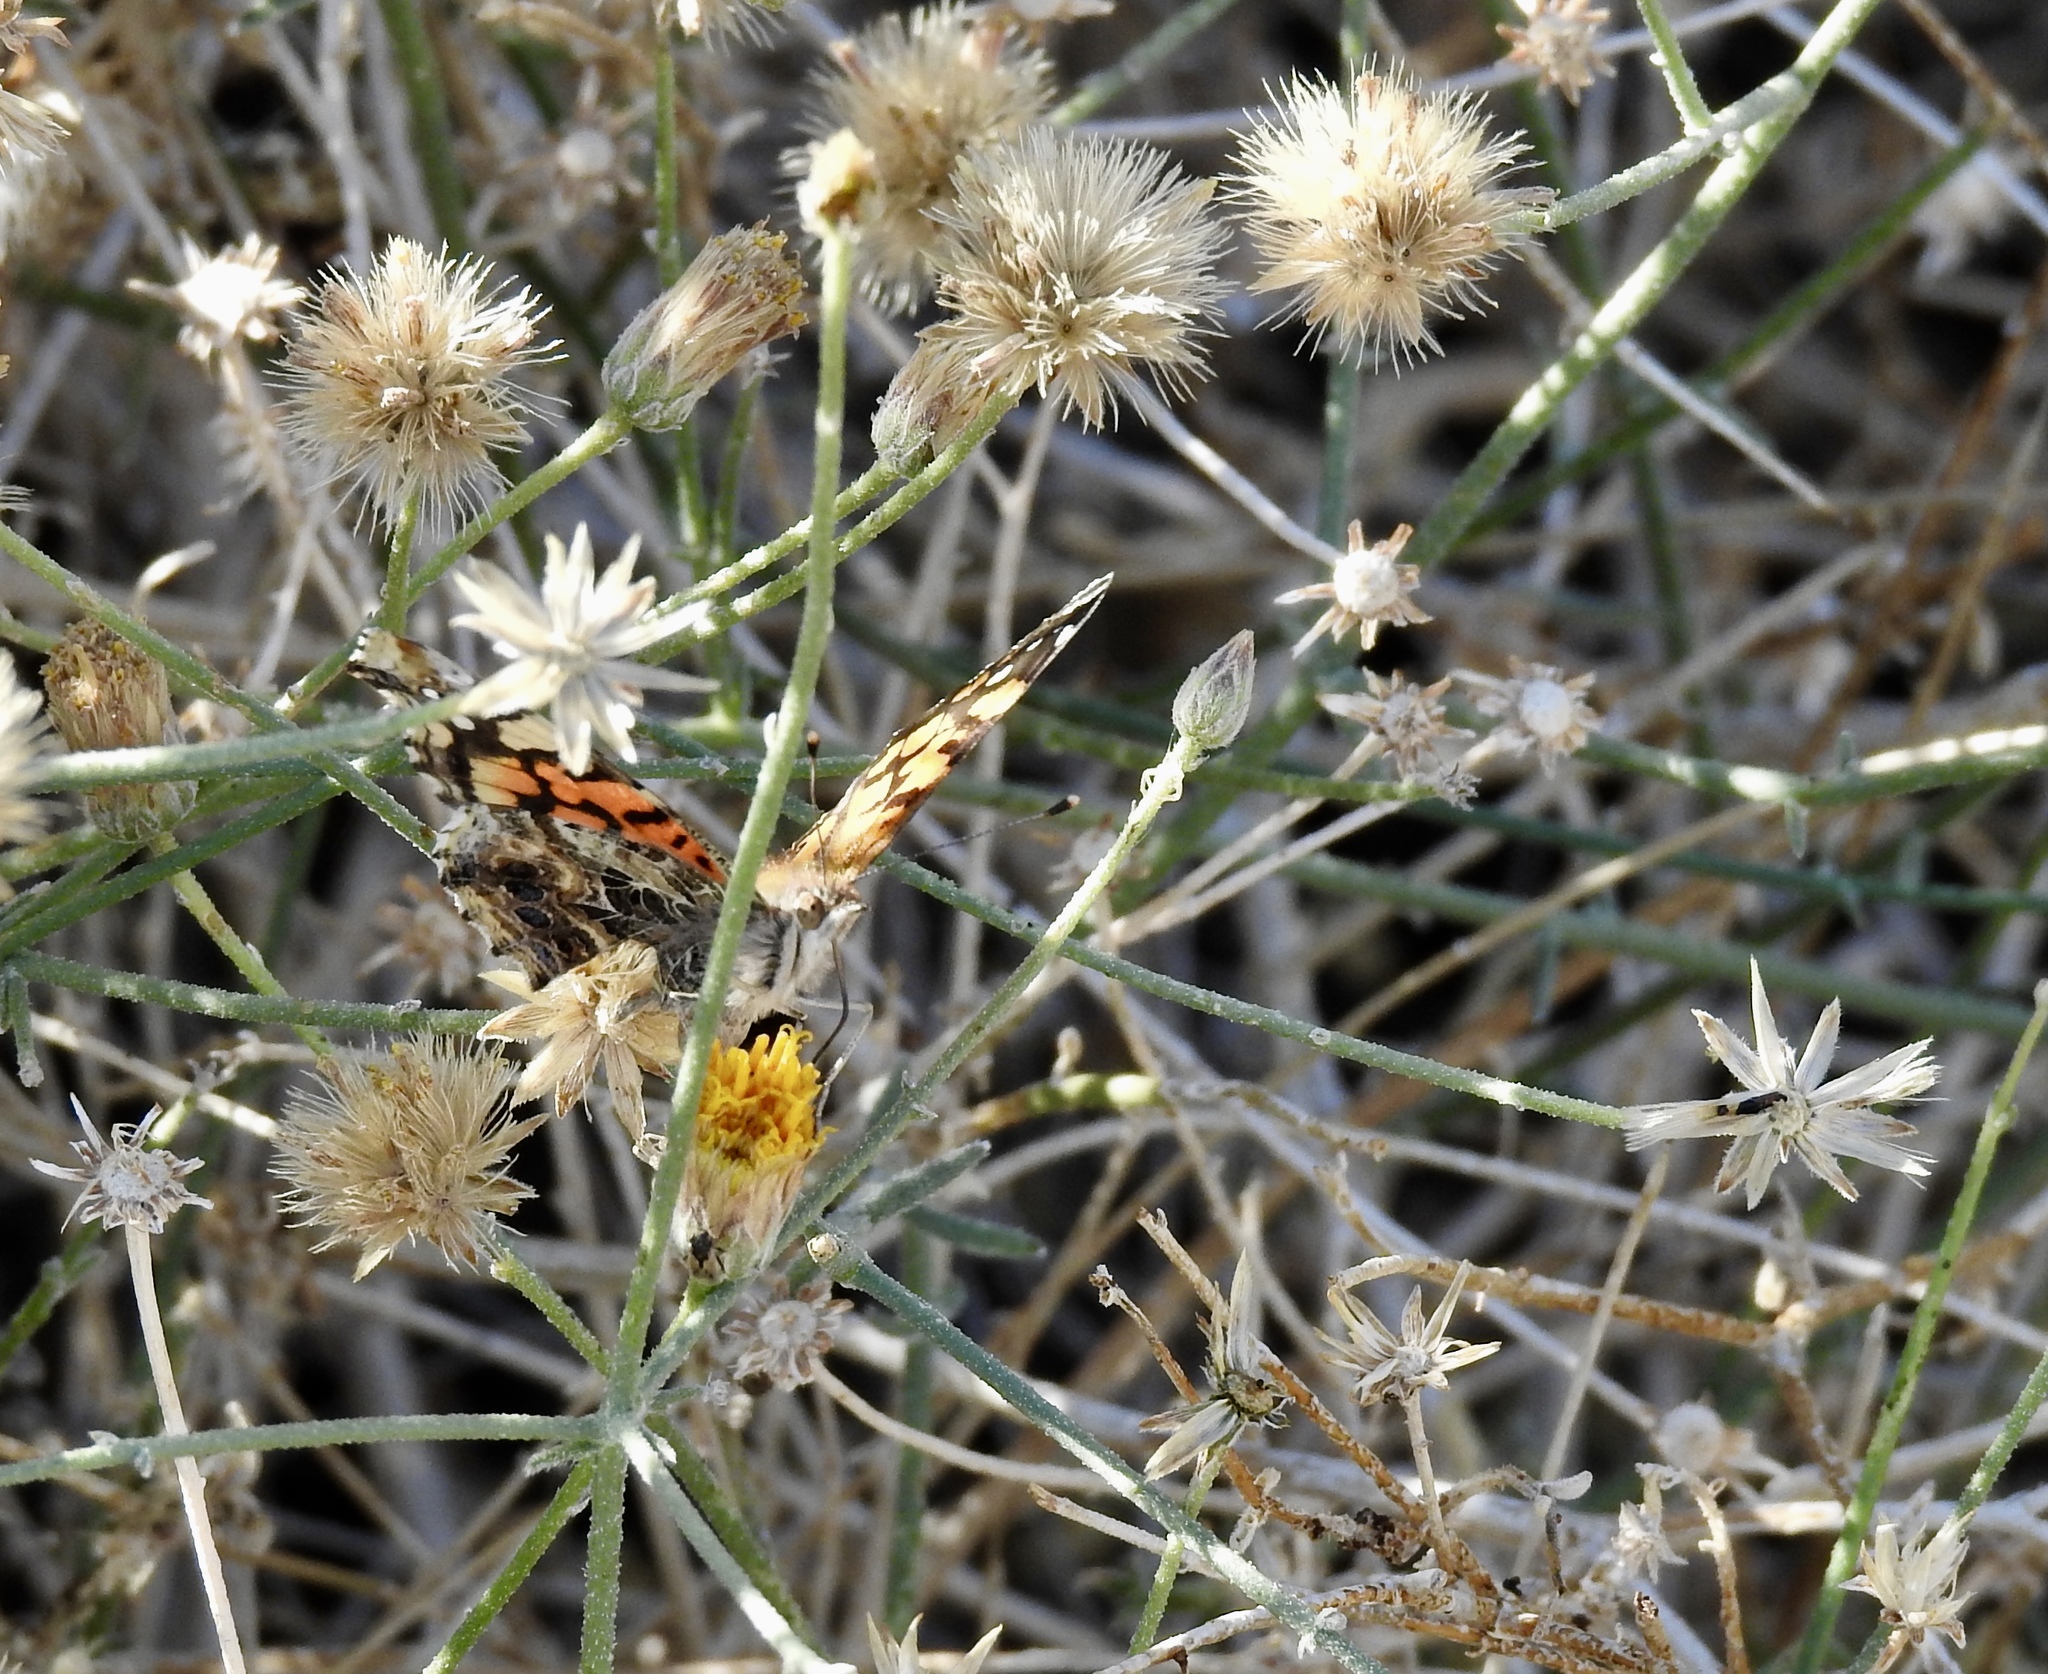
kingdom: Animalia
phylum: Arthropoda
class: Insecta
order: Lepidoptera
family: Nymphalidae
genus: Vanessa
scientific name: Vanessa annabella
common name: West coast lady
